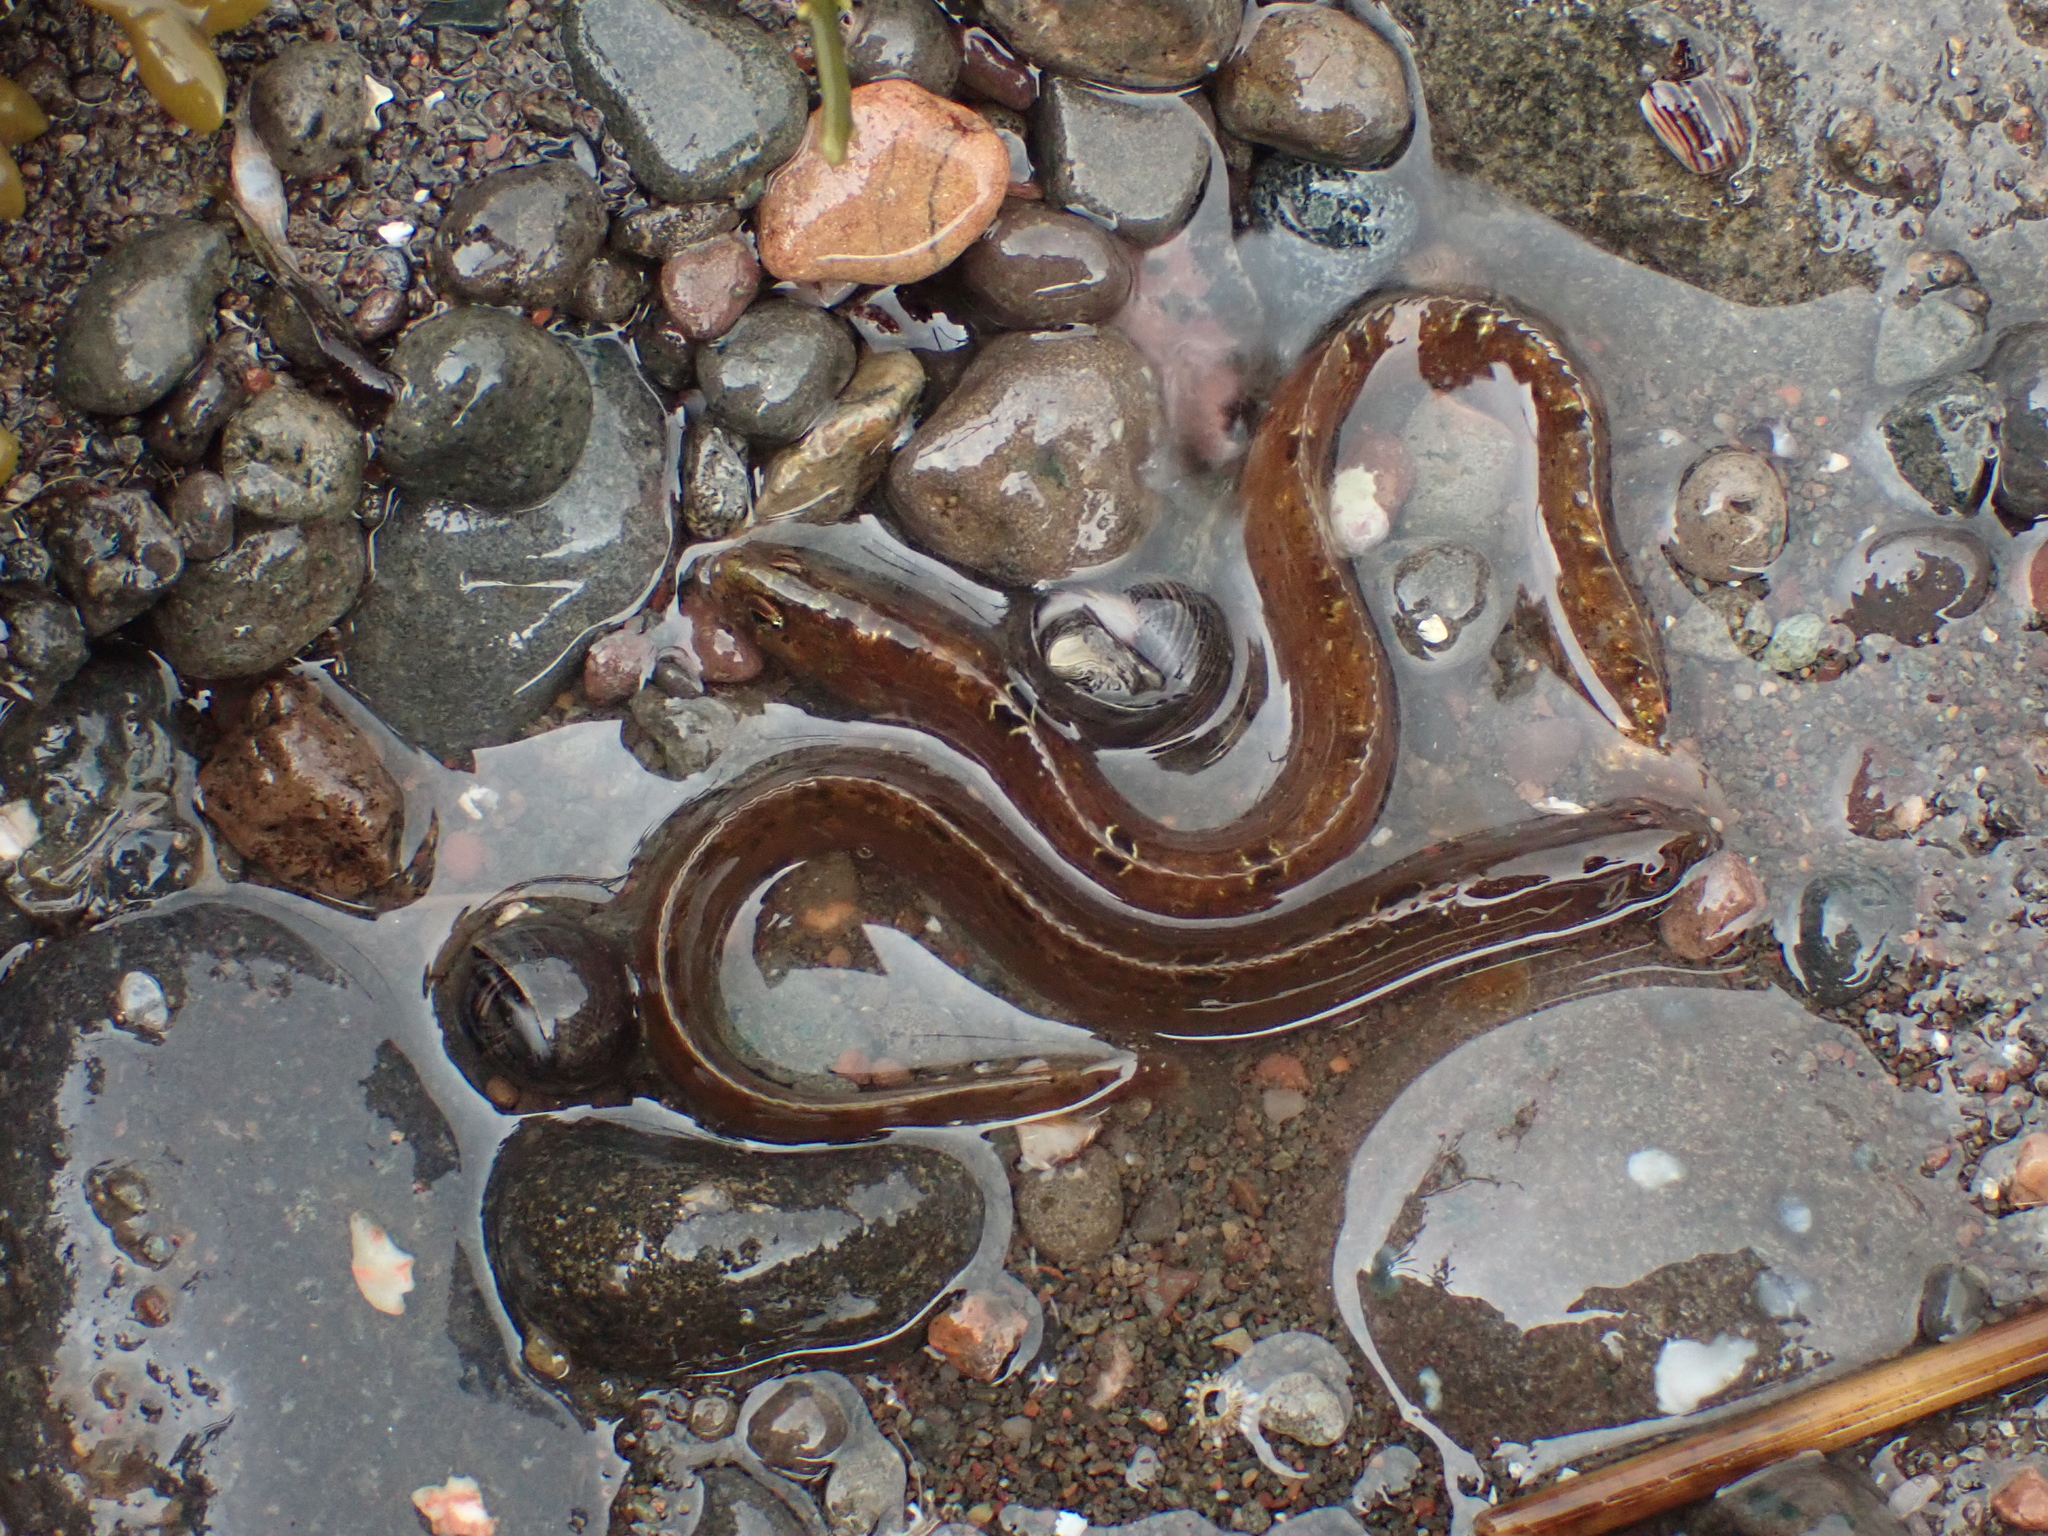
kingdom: Animalia
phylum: Chordata
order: Perciformes
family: Pholidae
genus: Pholis
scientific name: Pholis gunnellus
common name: Butterfish
